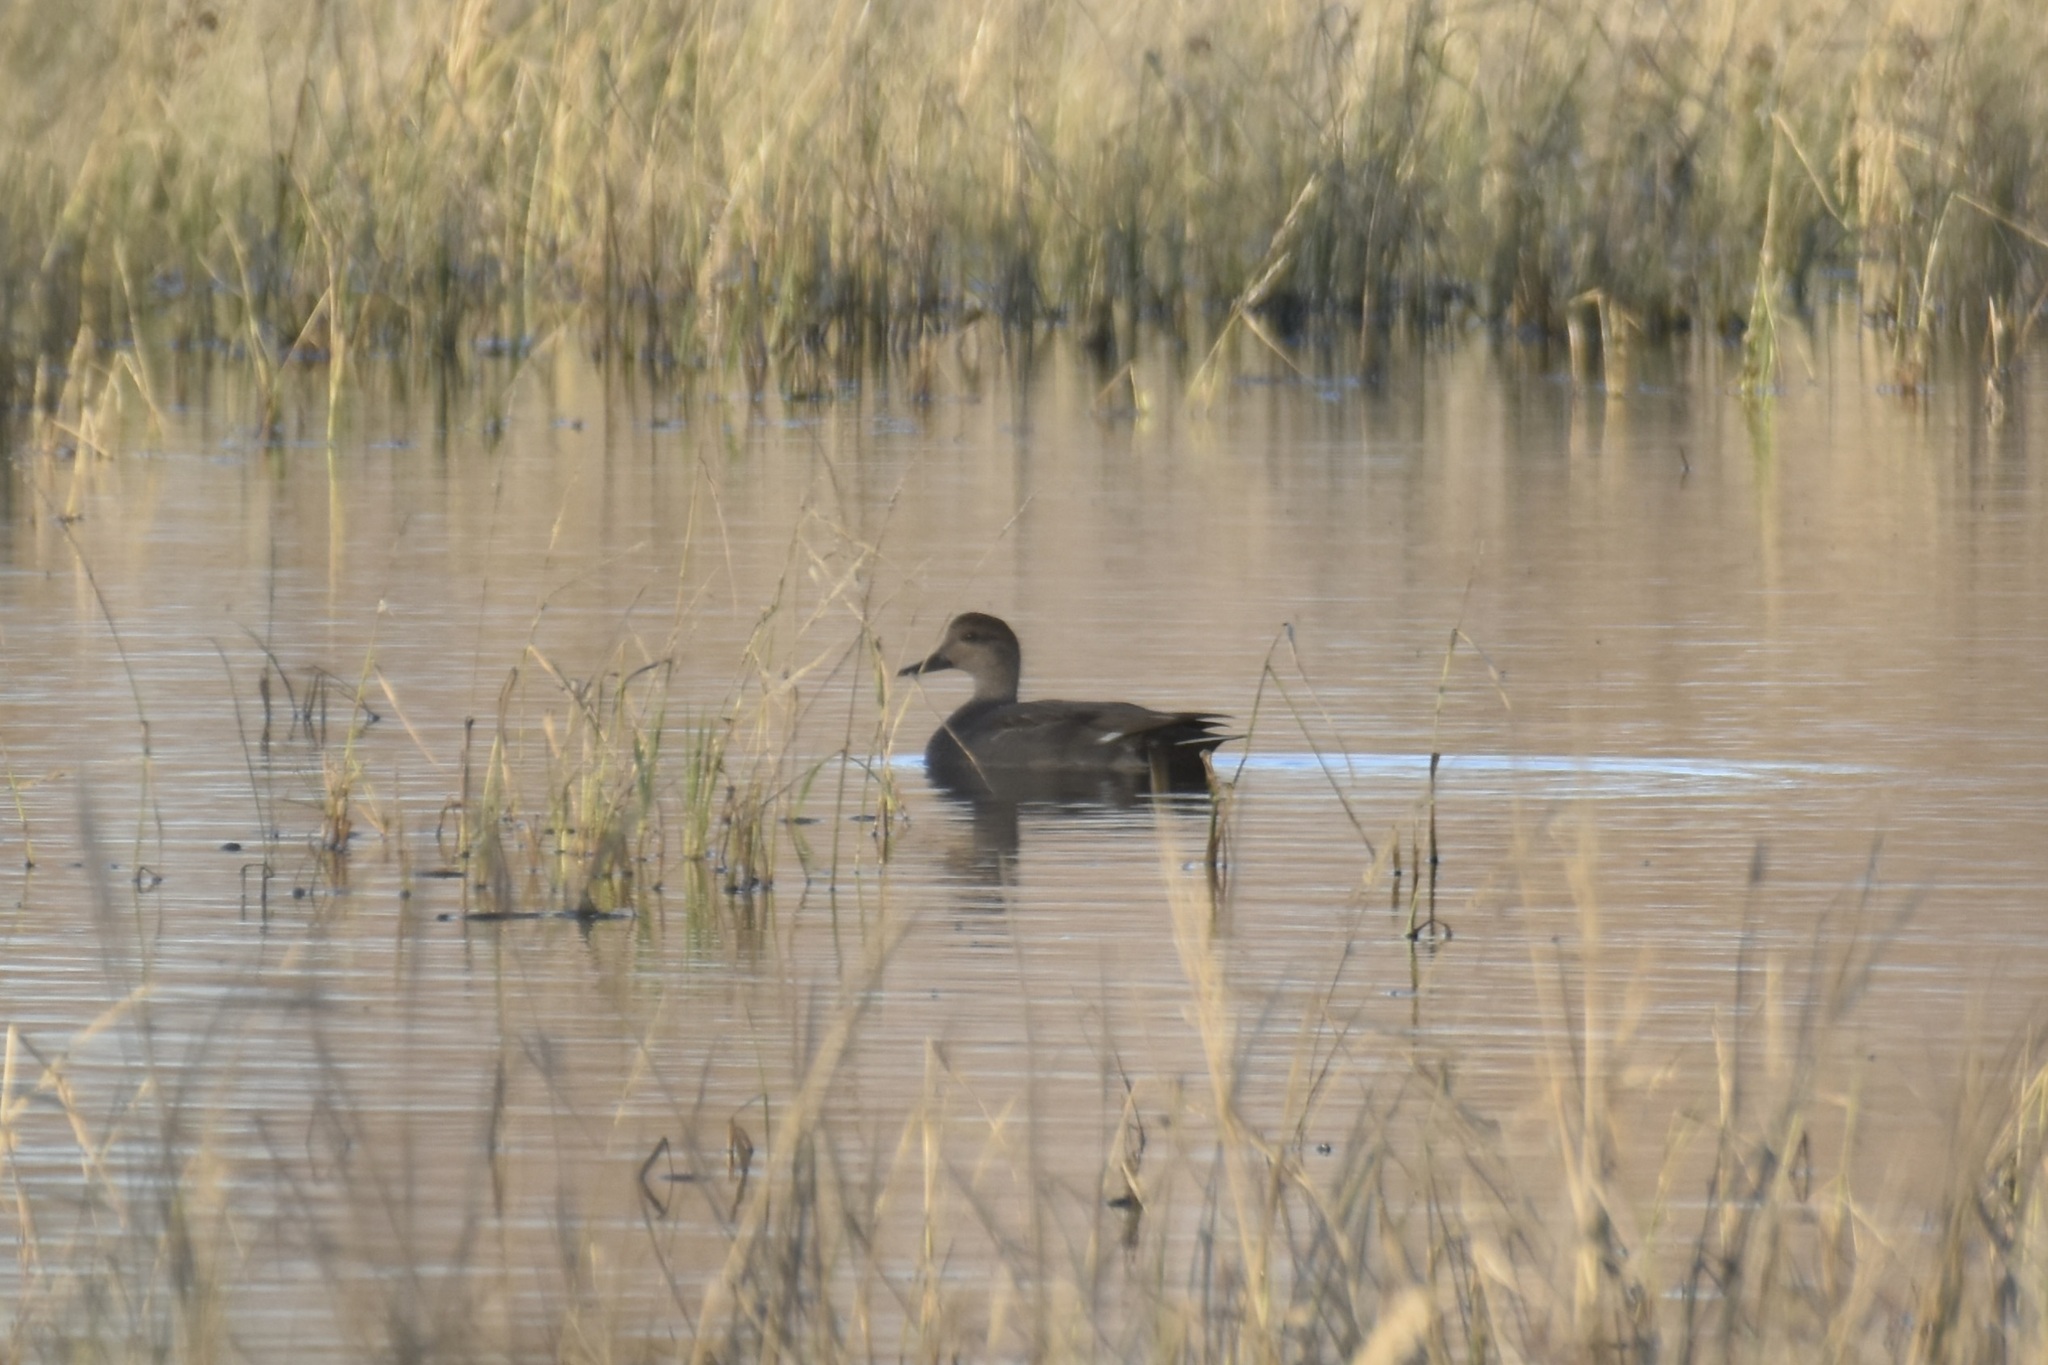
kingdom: Animalia
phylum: Chordata
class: Aves
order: Anseriformes
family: Anatidae
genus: Mareca
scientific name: Mareca strepera
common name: Gadwall
